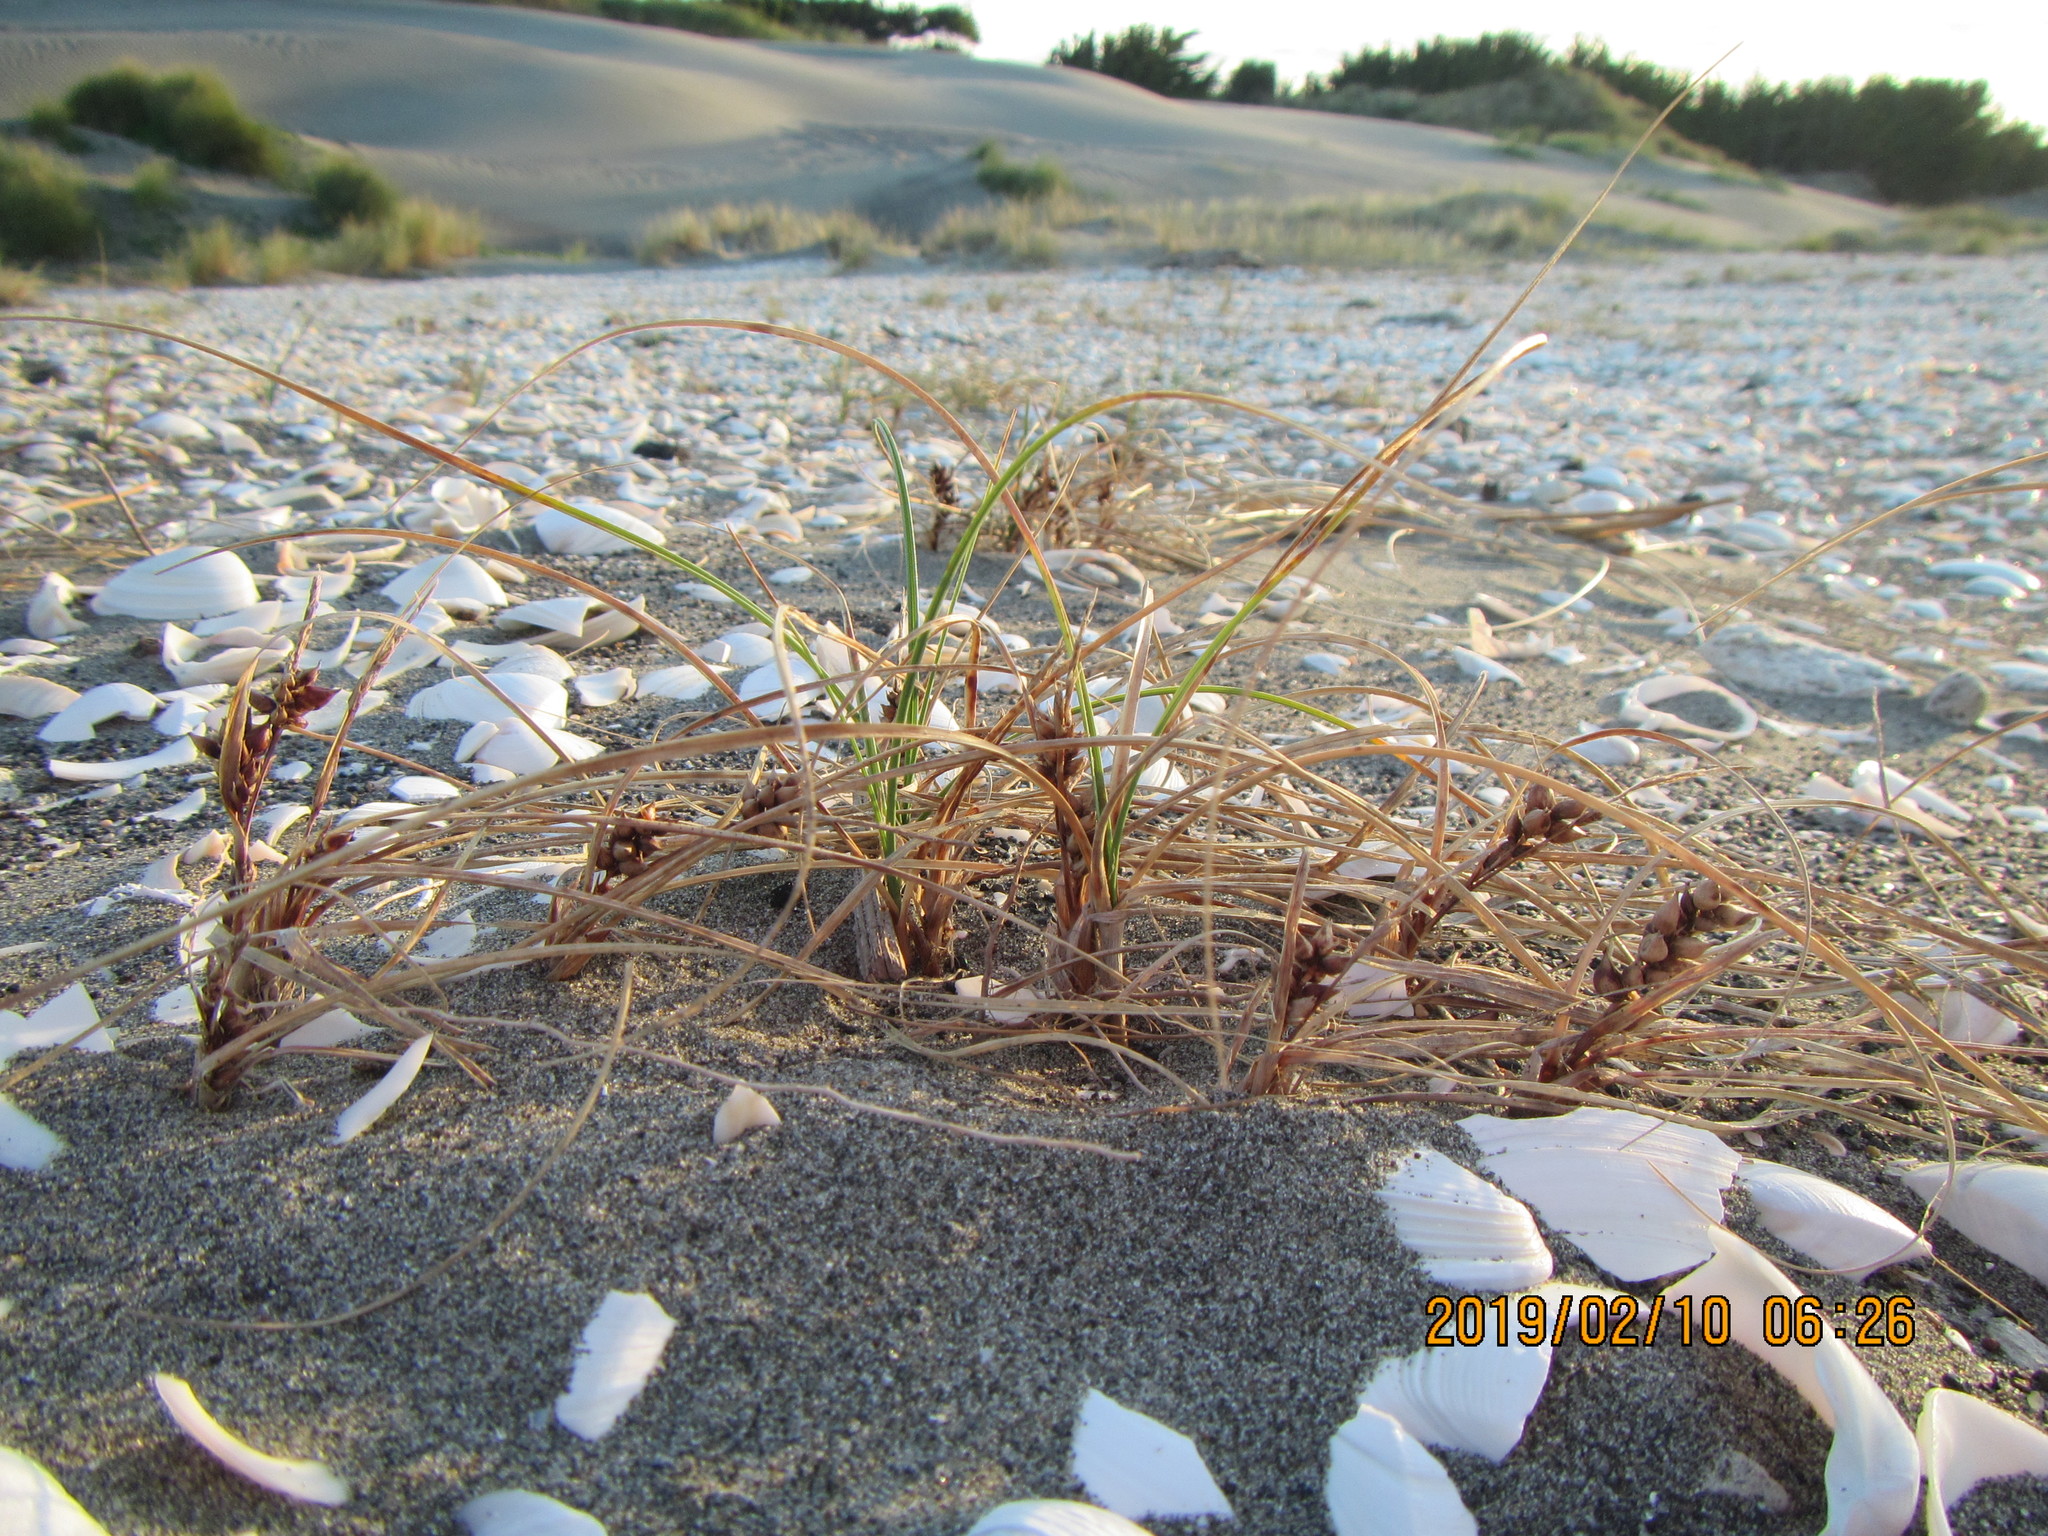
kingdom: Plantae
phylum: Tracheophyta
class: Liliopsida
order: Poales
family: Cyperaceae
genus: Carex
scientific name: Carex pumila
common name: Dwarf sedge
